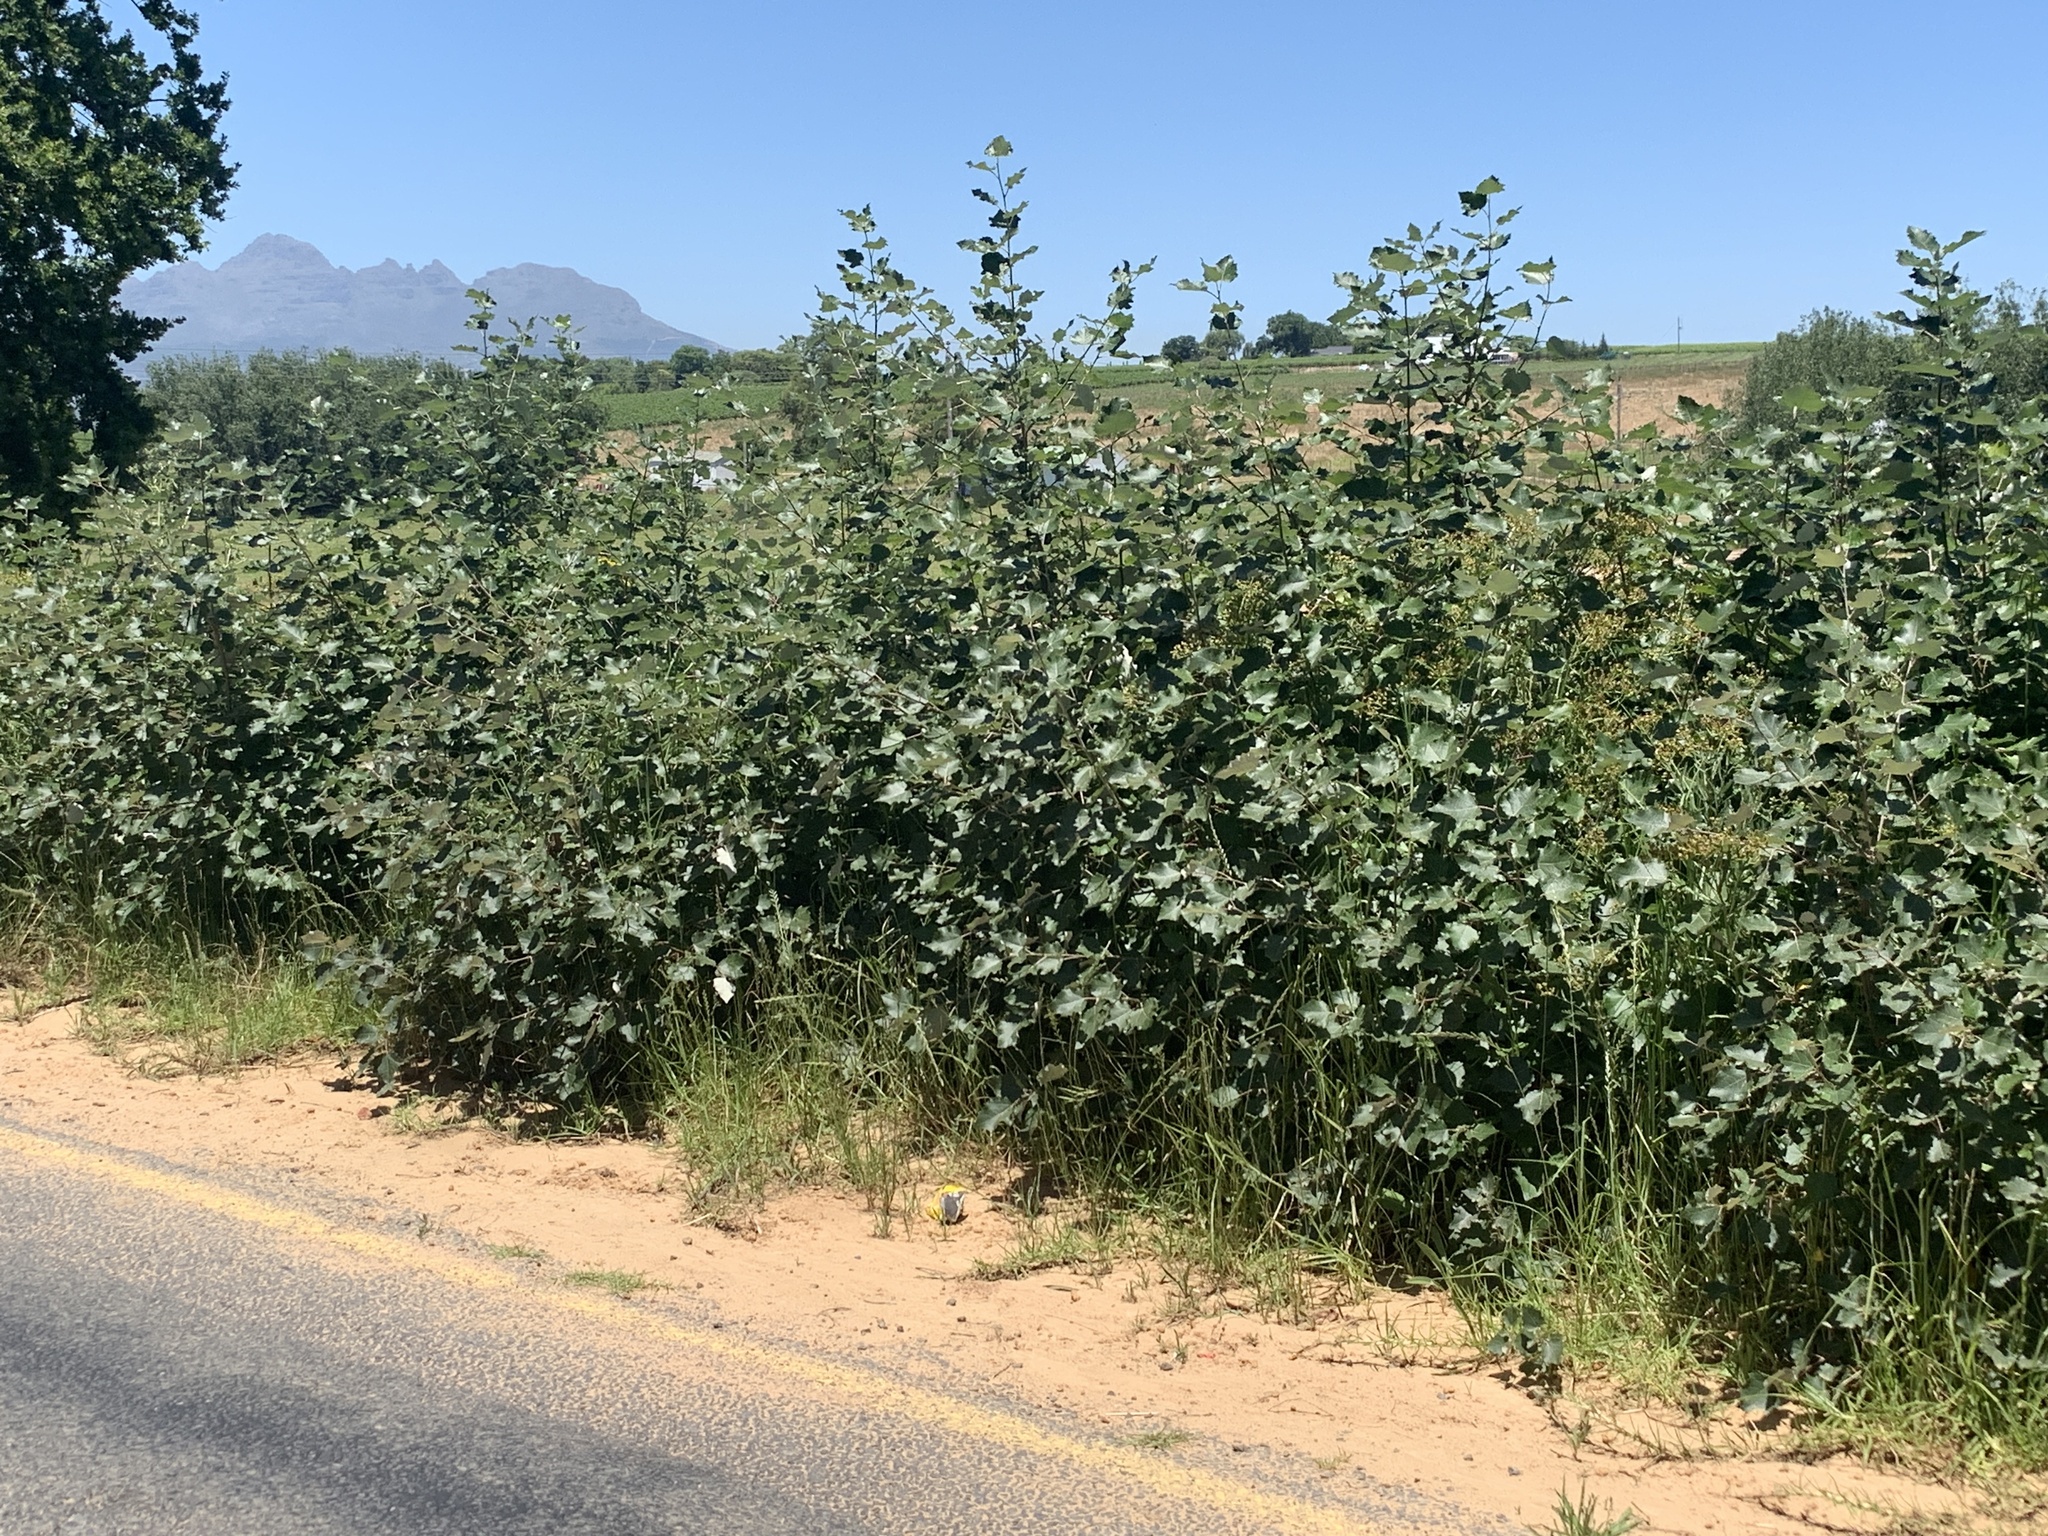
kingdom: Plantae
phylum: Tracheophyta
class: Magnoliopsida
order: Malpighiales
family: Salicaceae
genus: Populus
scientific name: Populus canescens
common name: Gray poplar
